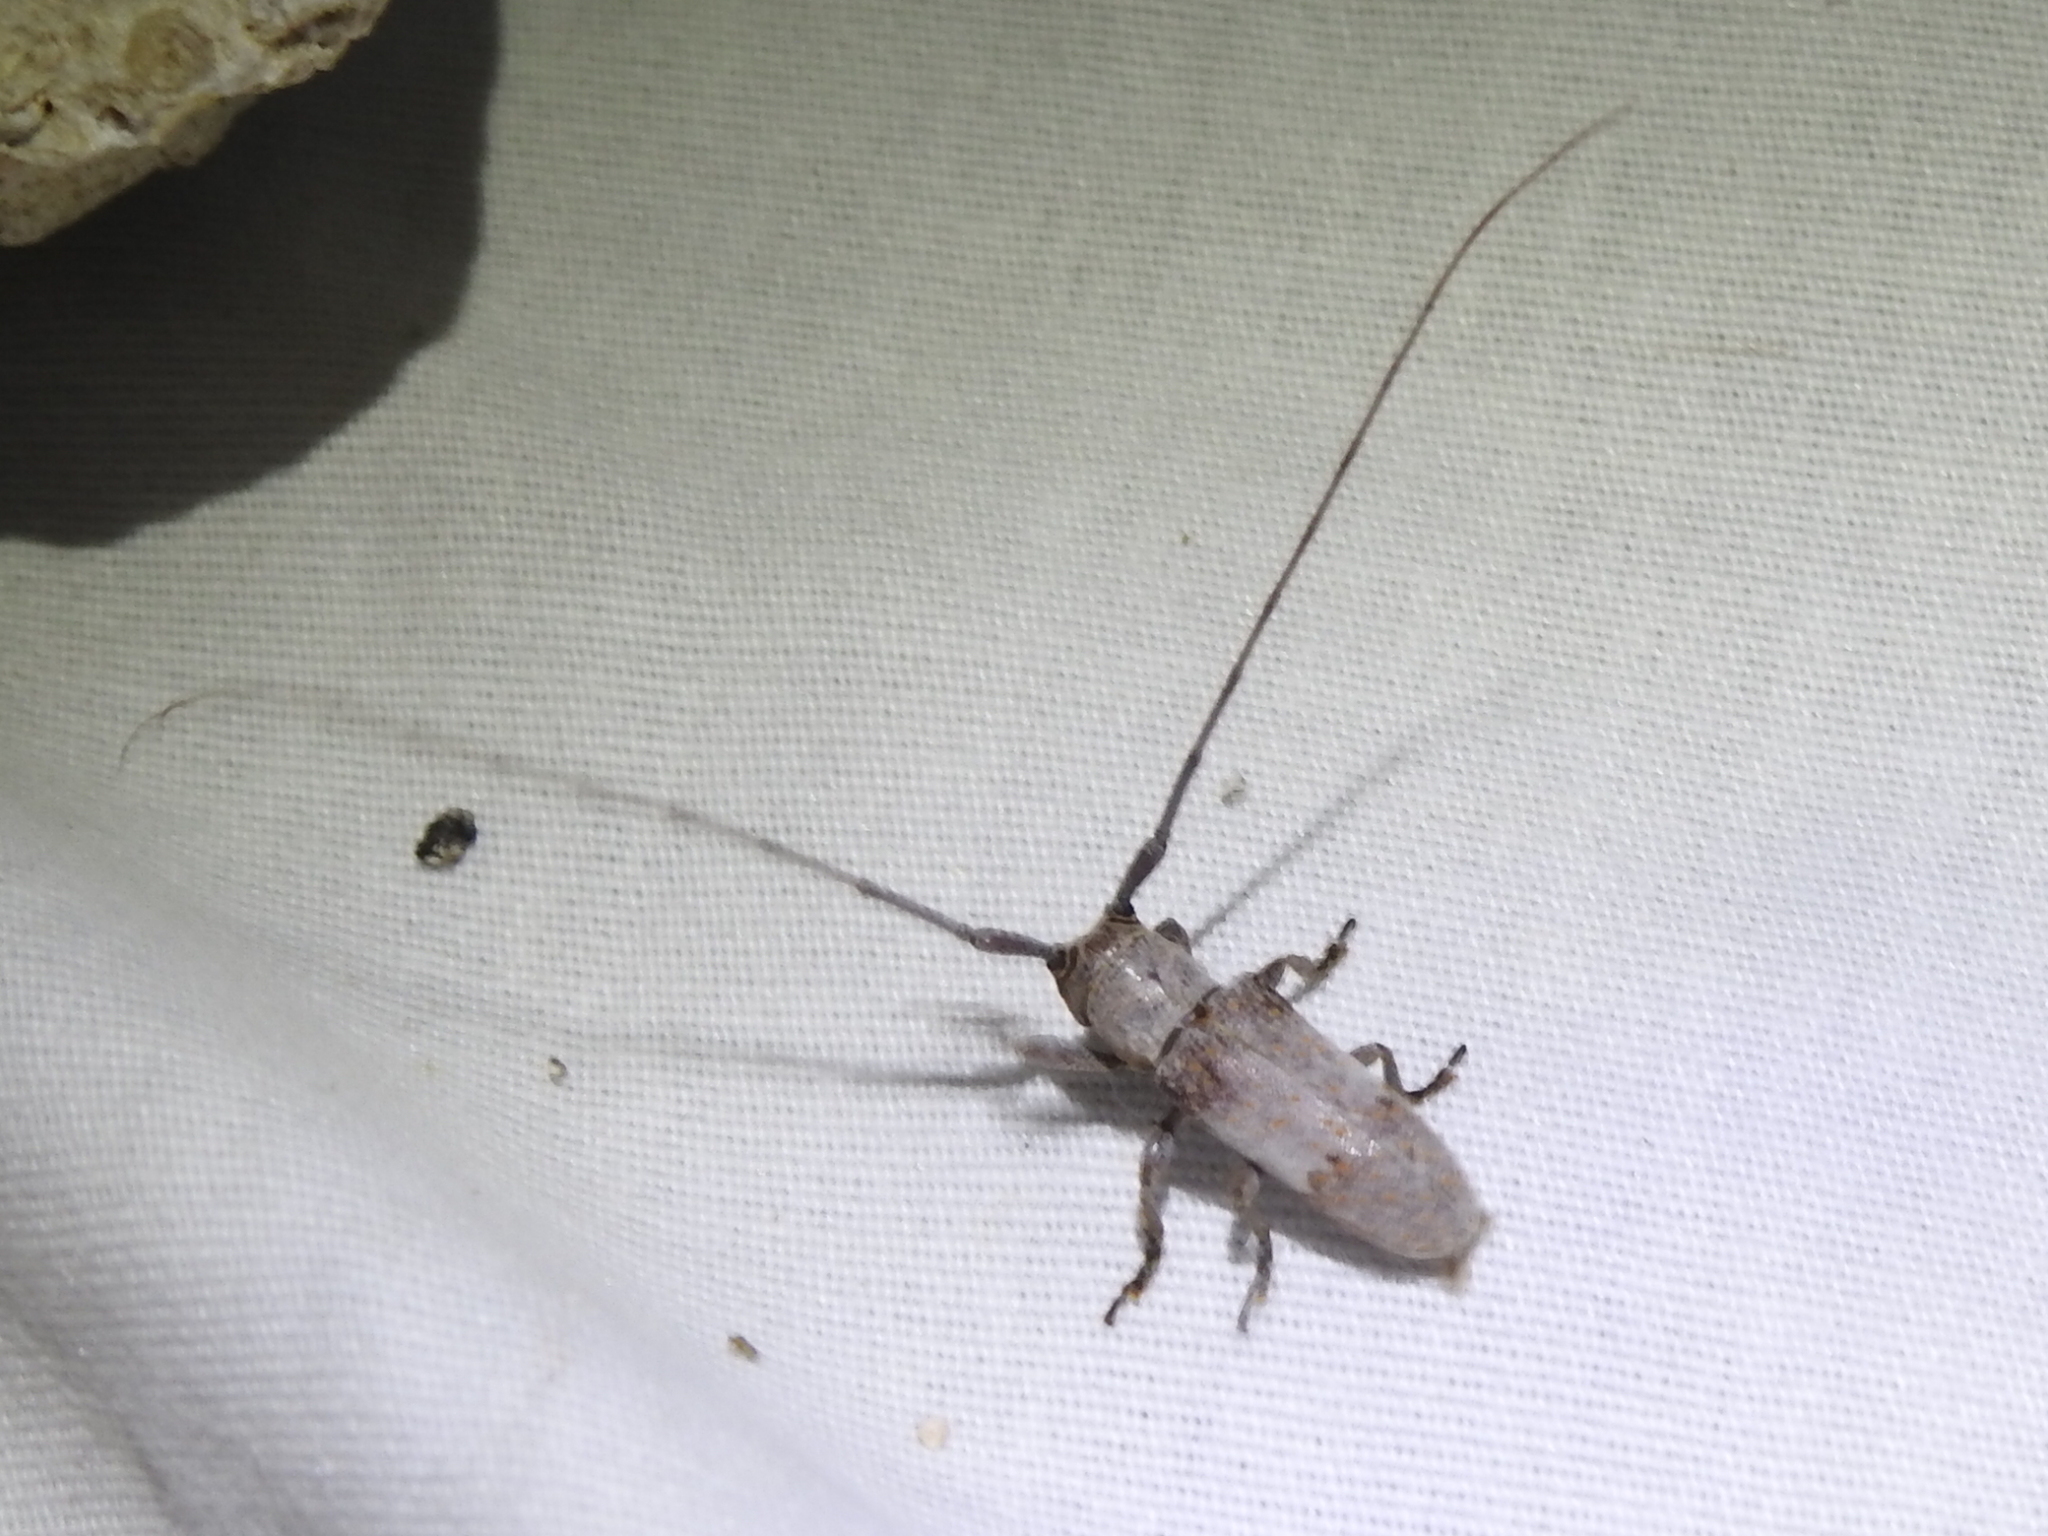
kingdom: Animalia
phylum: Arthropoda
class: Insecta
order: Coleoptera
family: Cerambycidae
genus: Oncideres
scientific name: Oncideres cingulata
